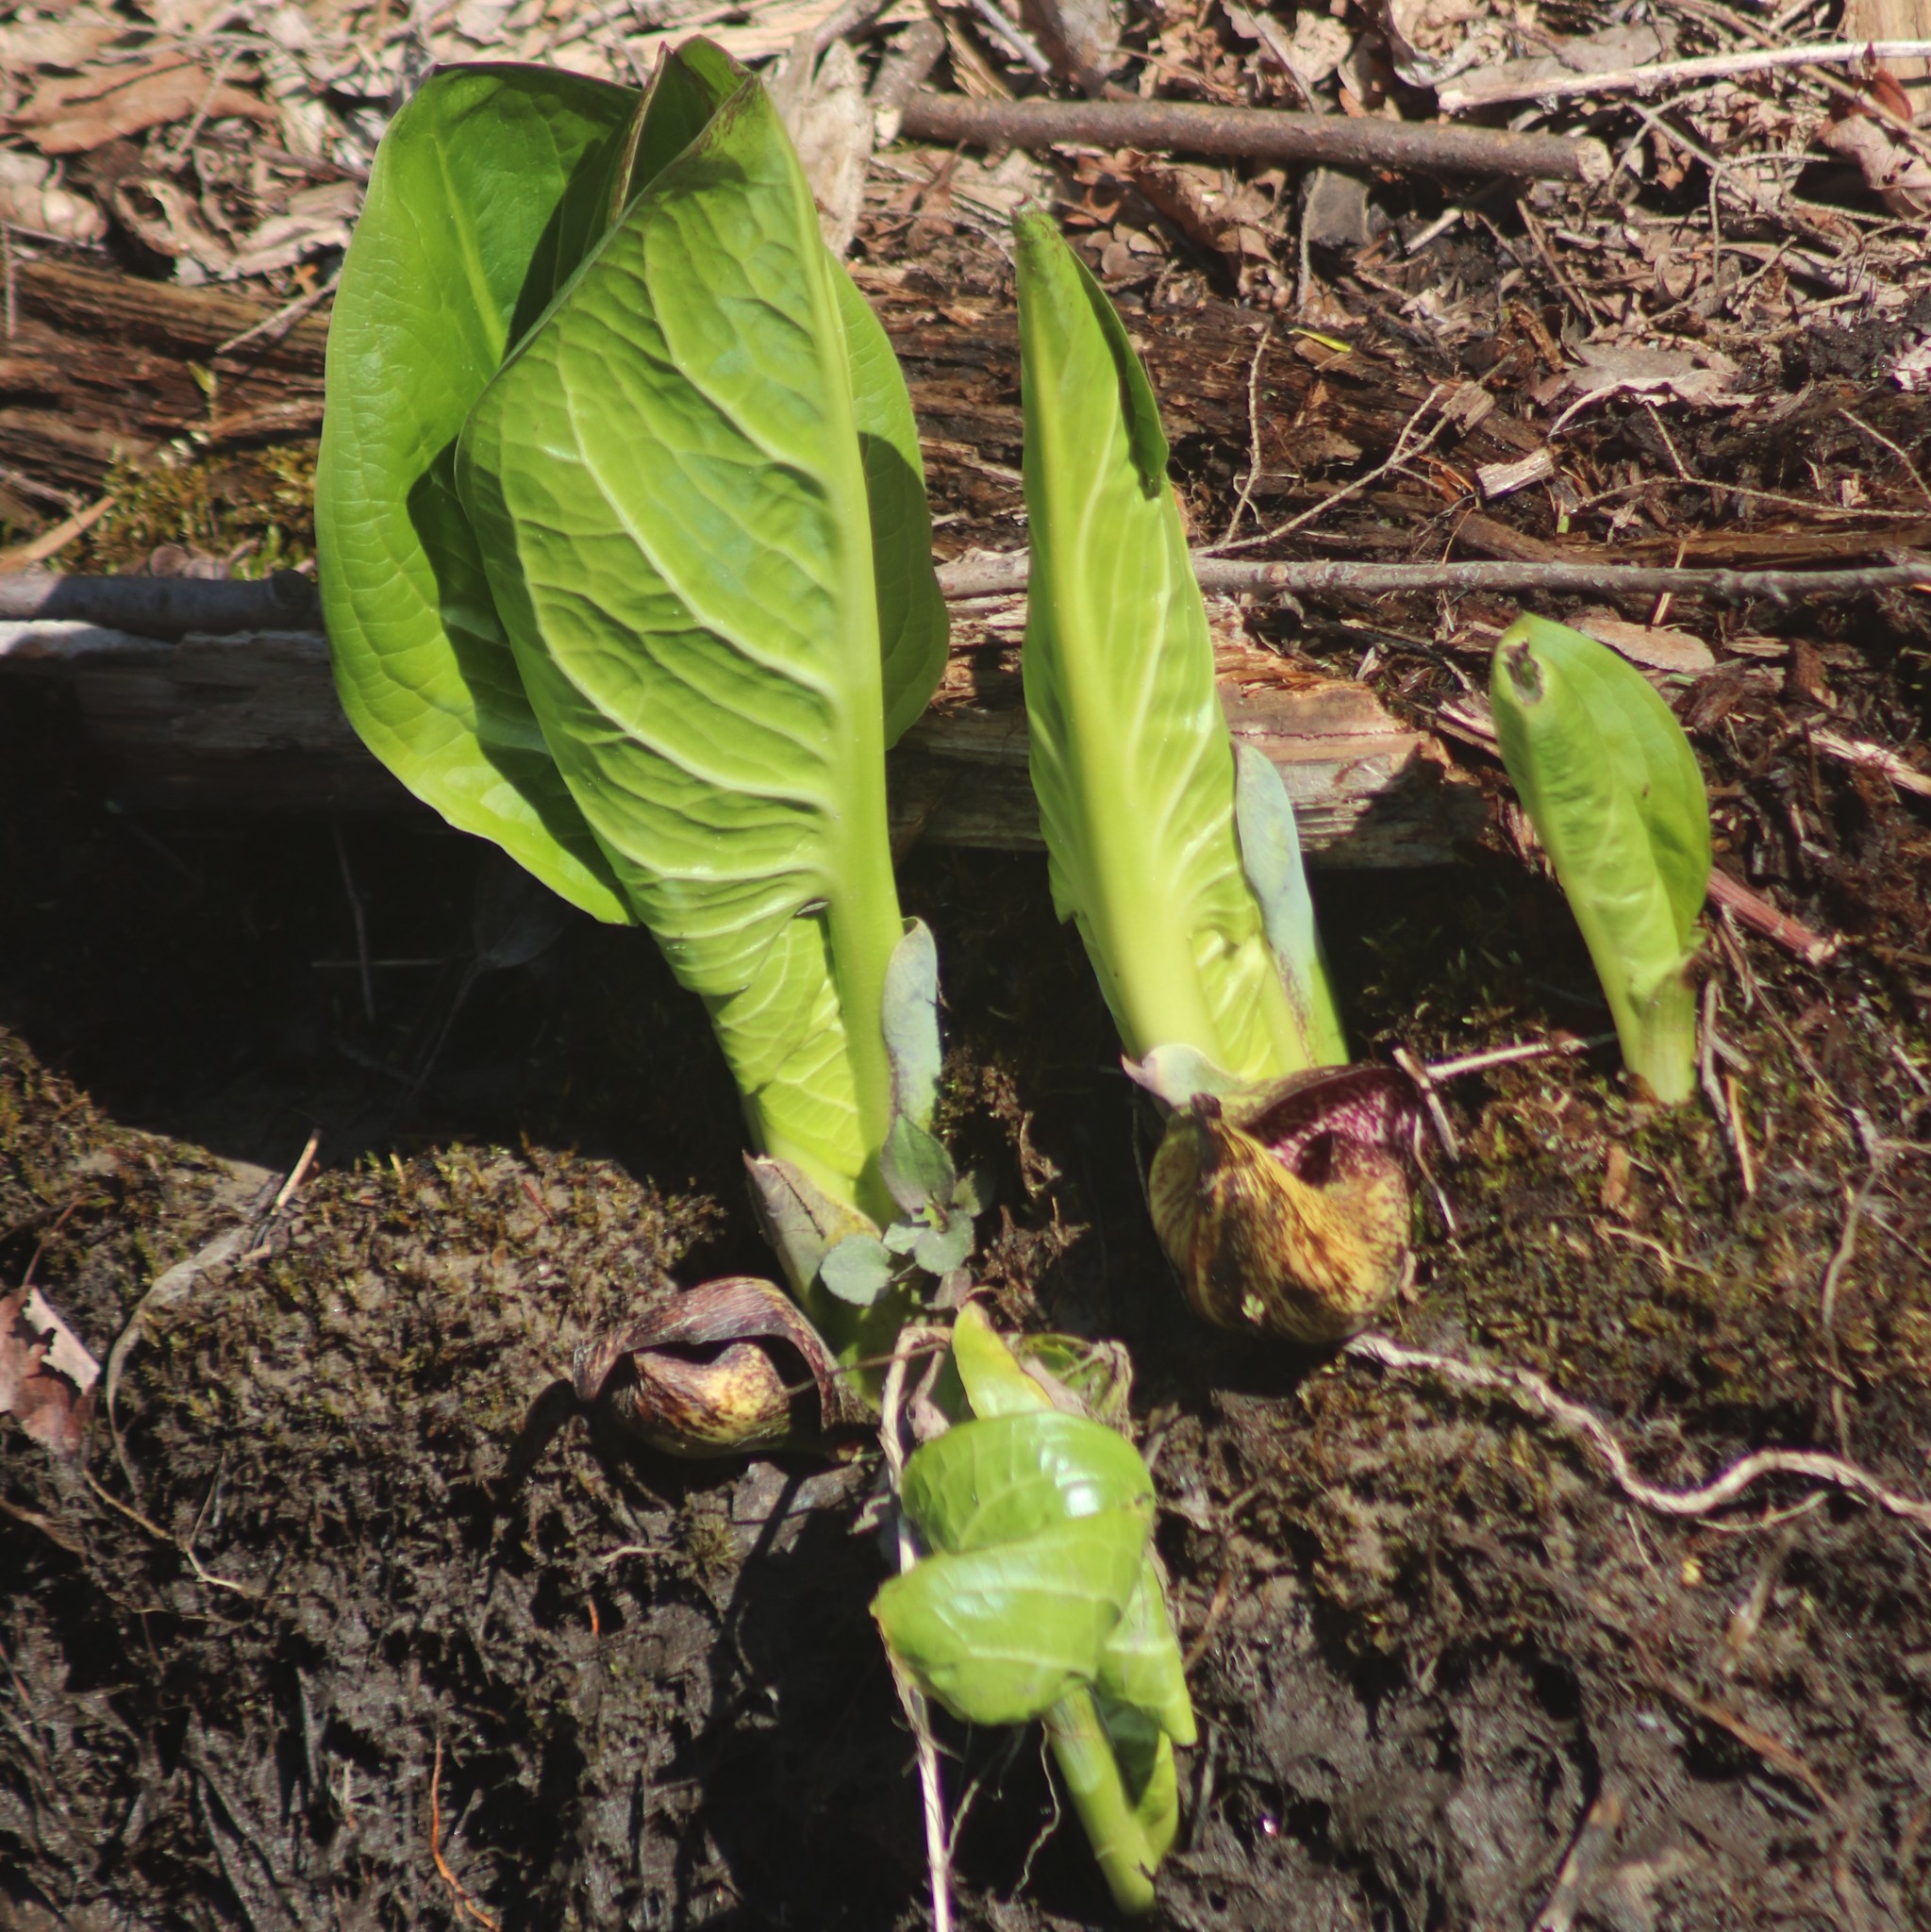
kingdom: Plantae
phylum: Tracheophyta
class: Liliopsida
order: Alismatales
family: Araceae
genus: Symplocarpus
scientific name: Symplocarpus foetidus
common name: Eastern skunk cabbage
